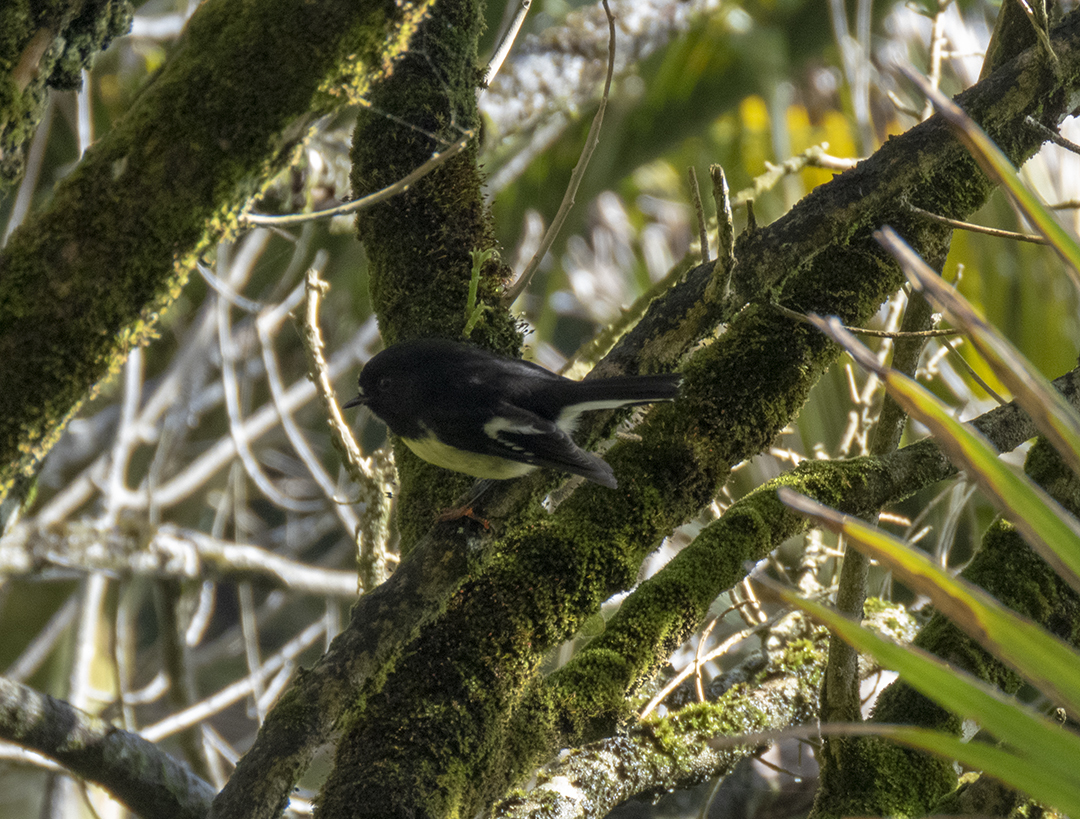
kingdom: Animalia
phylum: Chordata
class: Aves
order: Passeriformes
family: Petroicidae
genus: Petroica
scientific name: Petroica macrocephala
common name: Tomtit
